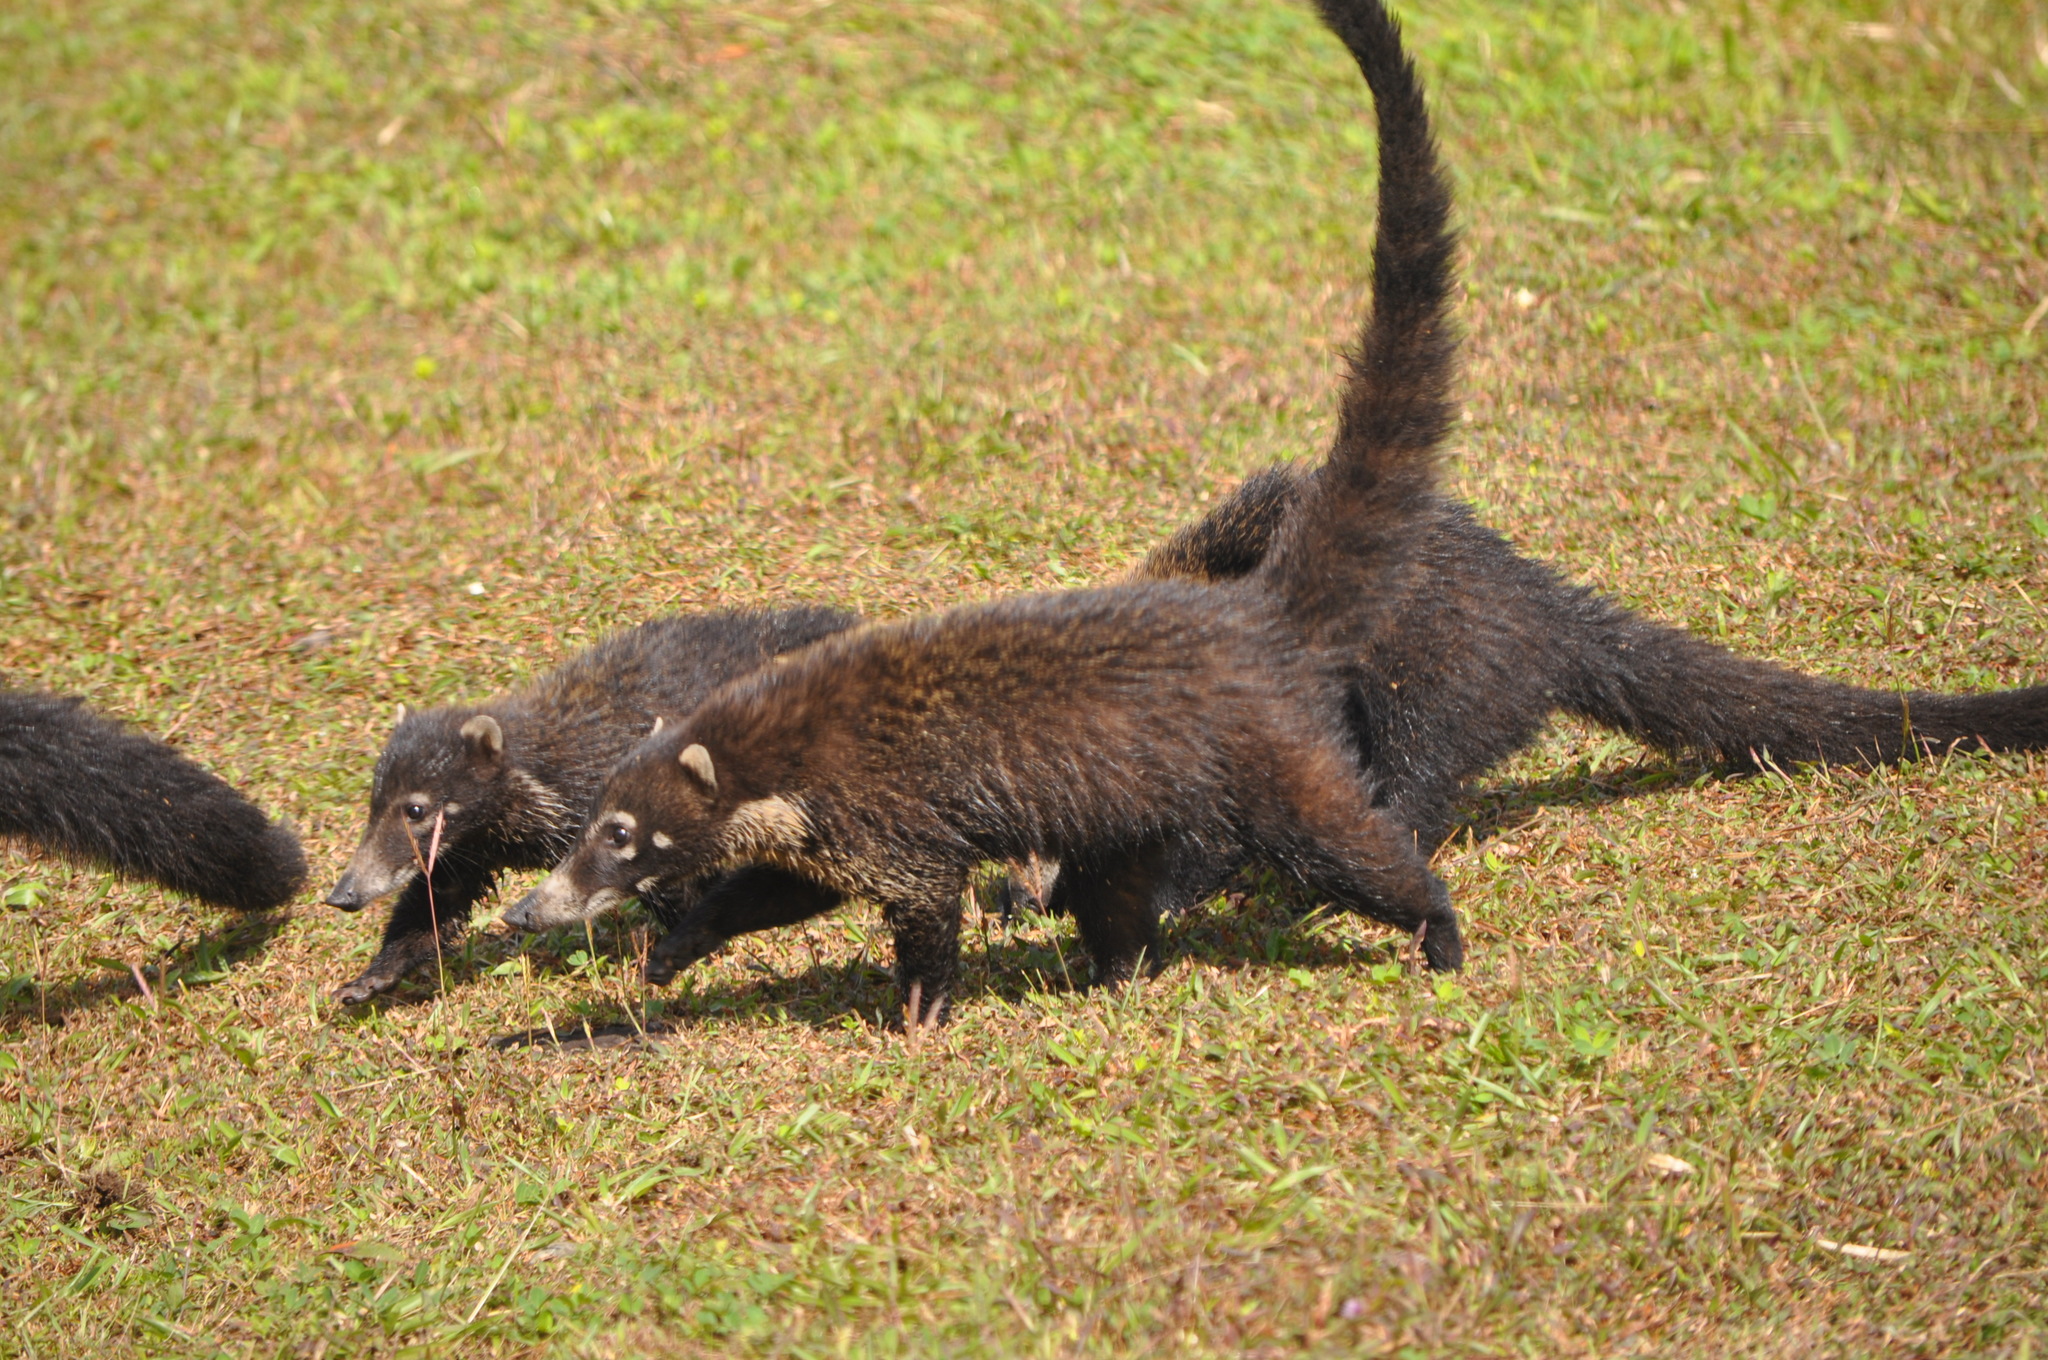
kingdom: Animalia
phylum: Chordata
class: Mammalia
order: Carnivora
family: Procyonidae
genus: Nasua
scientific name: Nasua narica
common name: White-nosed coati
